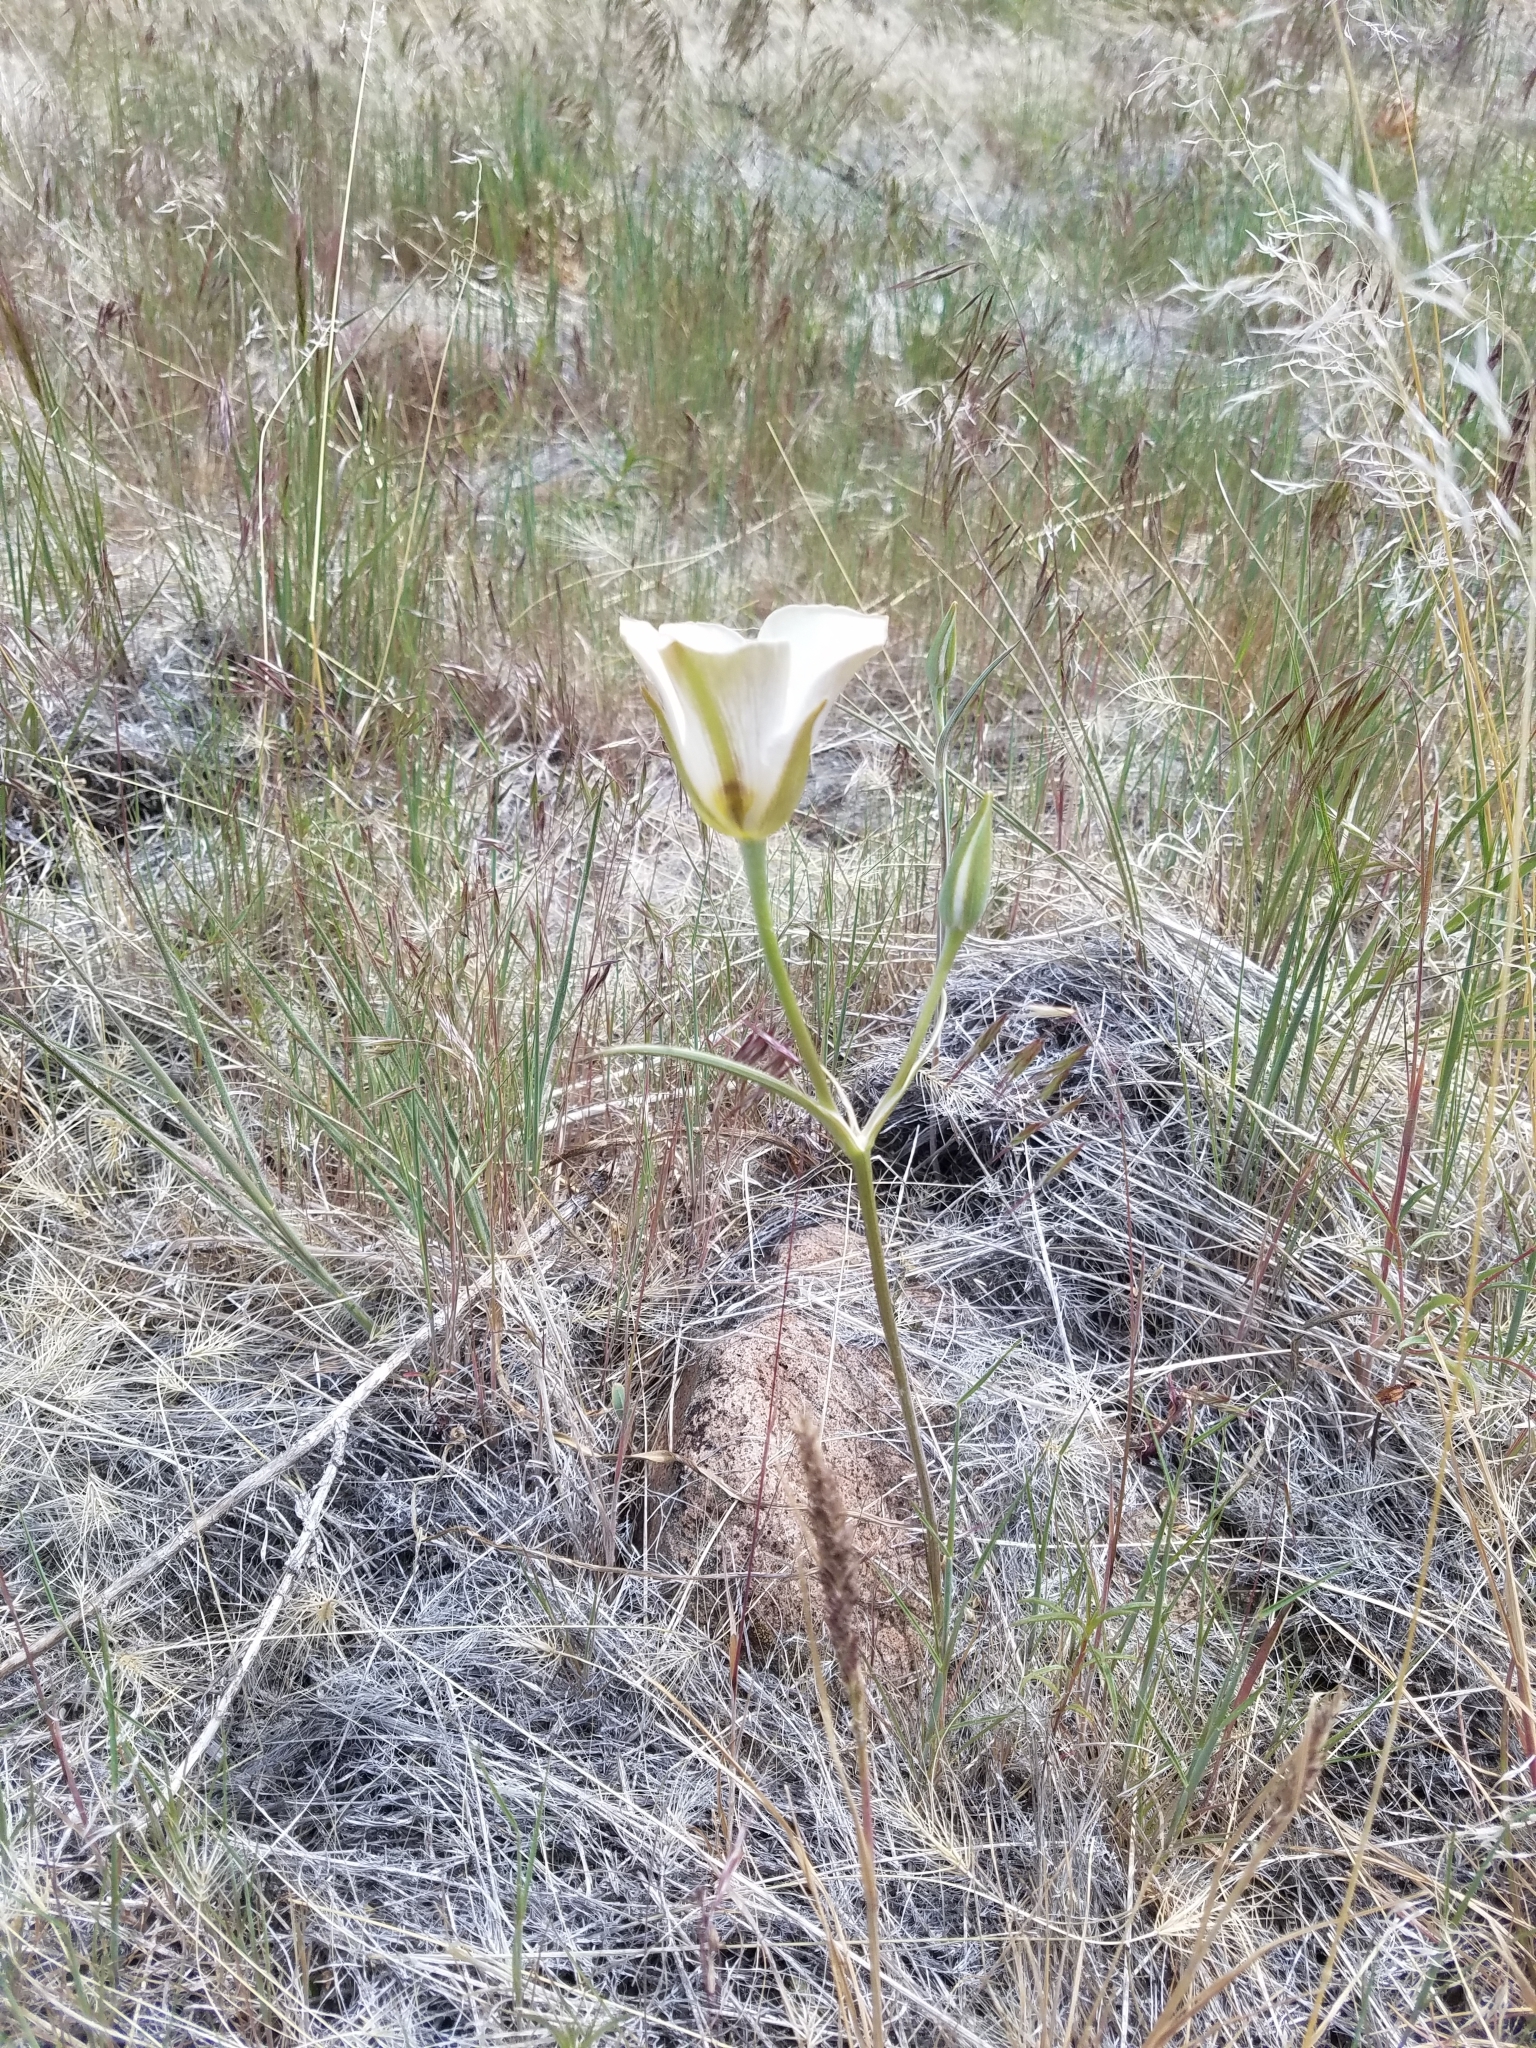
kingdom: Plantae
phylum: Tracheophyta
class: Liliopsida
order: Liliales
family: Liliaceae
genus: Calochortus
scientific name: Calochortus bruneaunis
